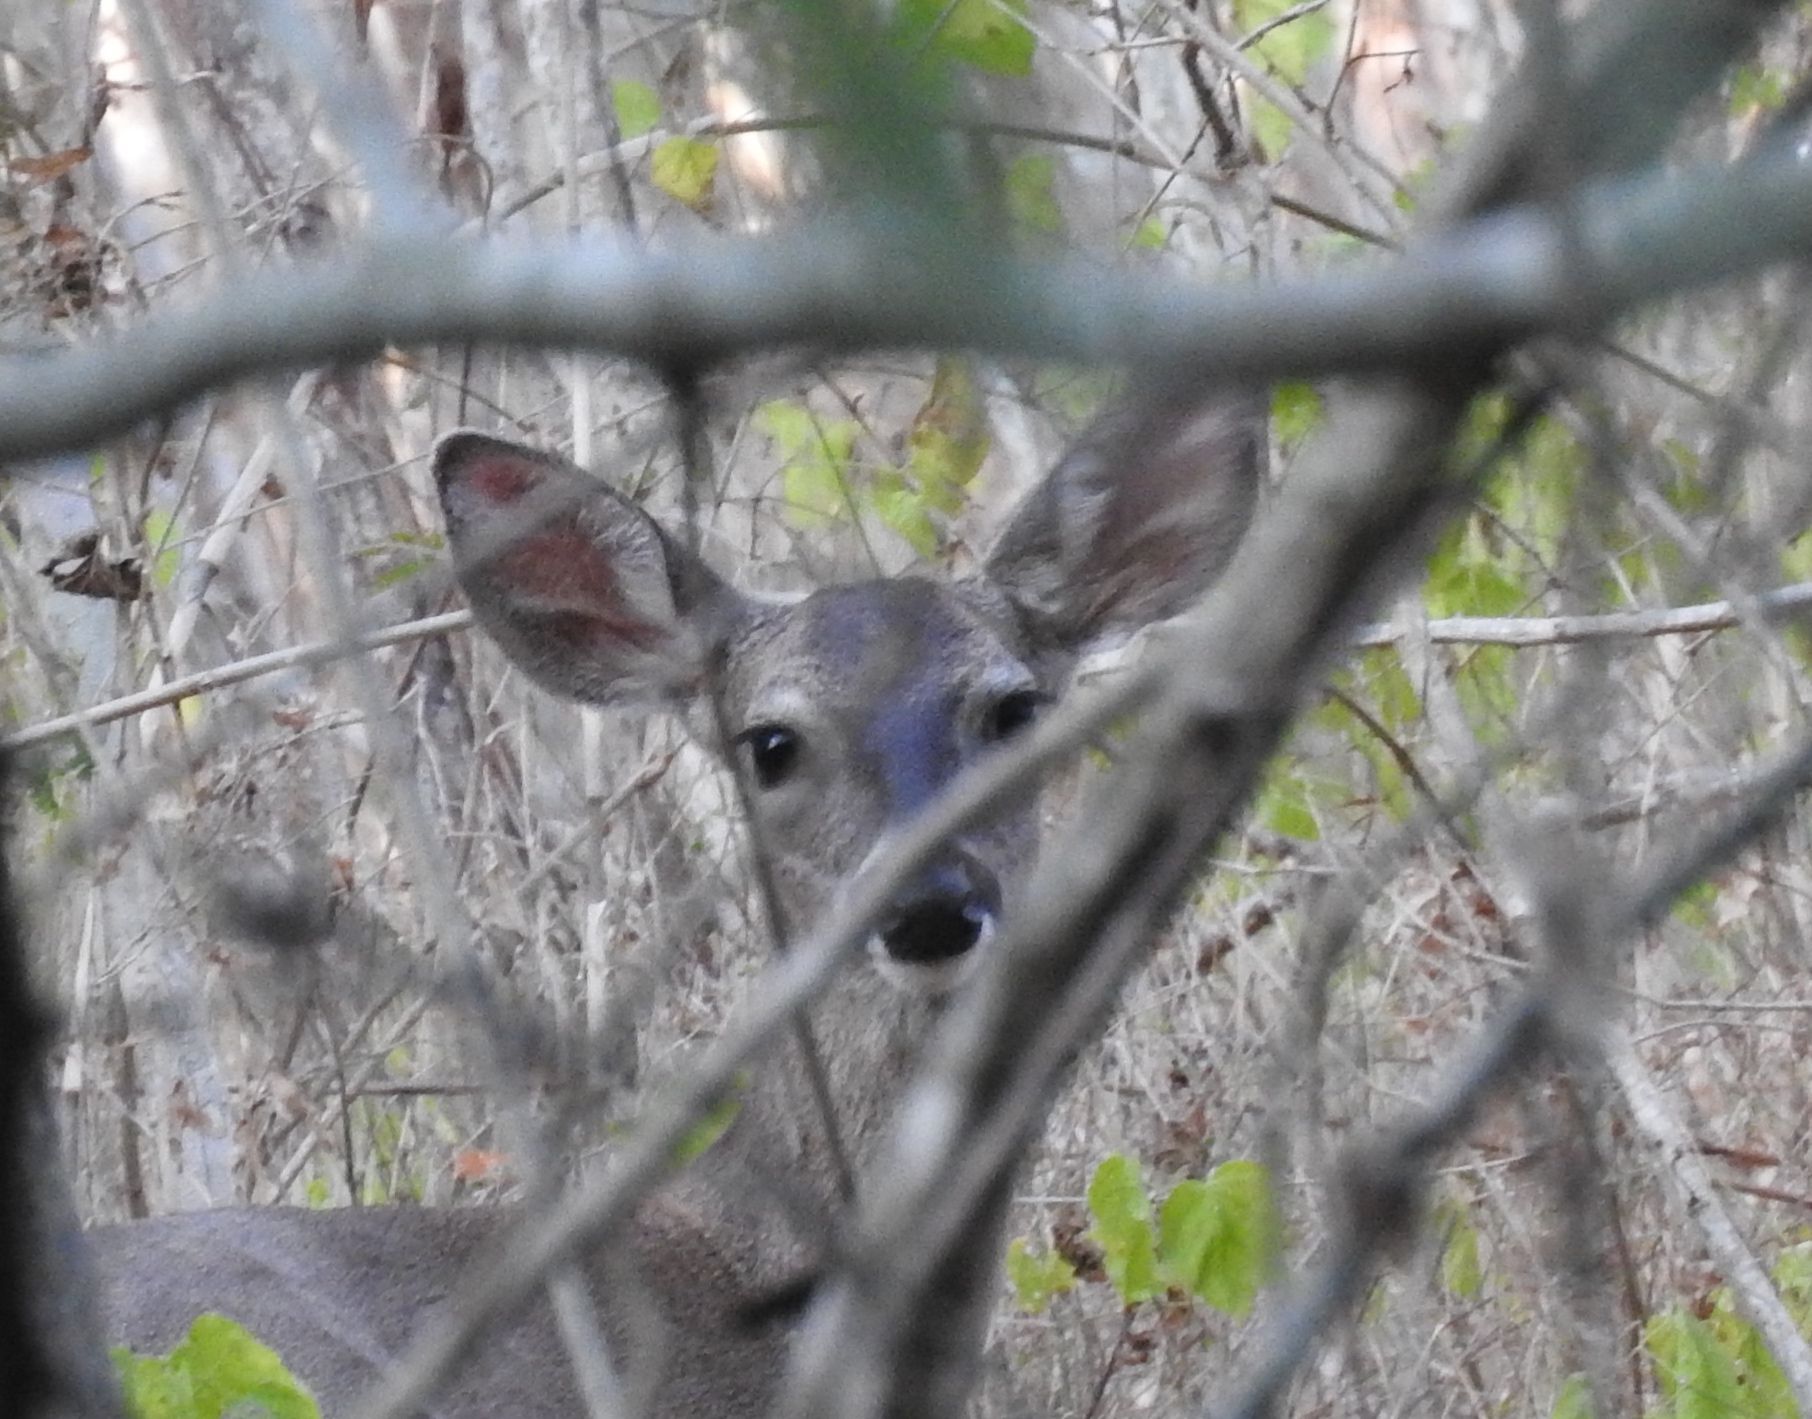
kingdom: Animalia
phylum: Chordata
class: Mammalia
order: Artiodactyla
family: Cervidae
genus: Odocoileus
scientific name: Odocoileus virginianus
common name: White-tailed deer
